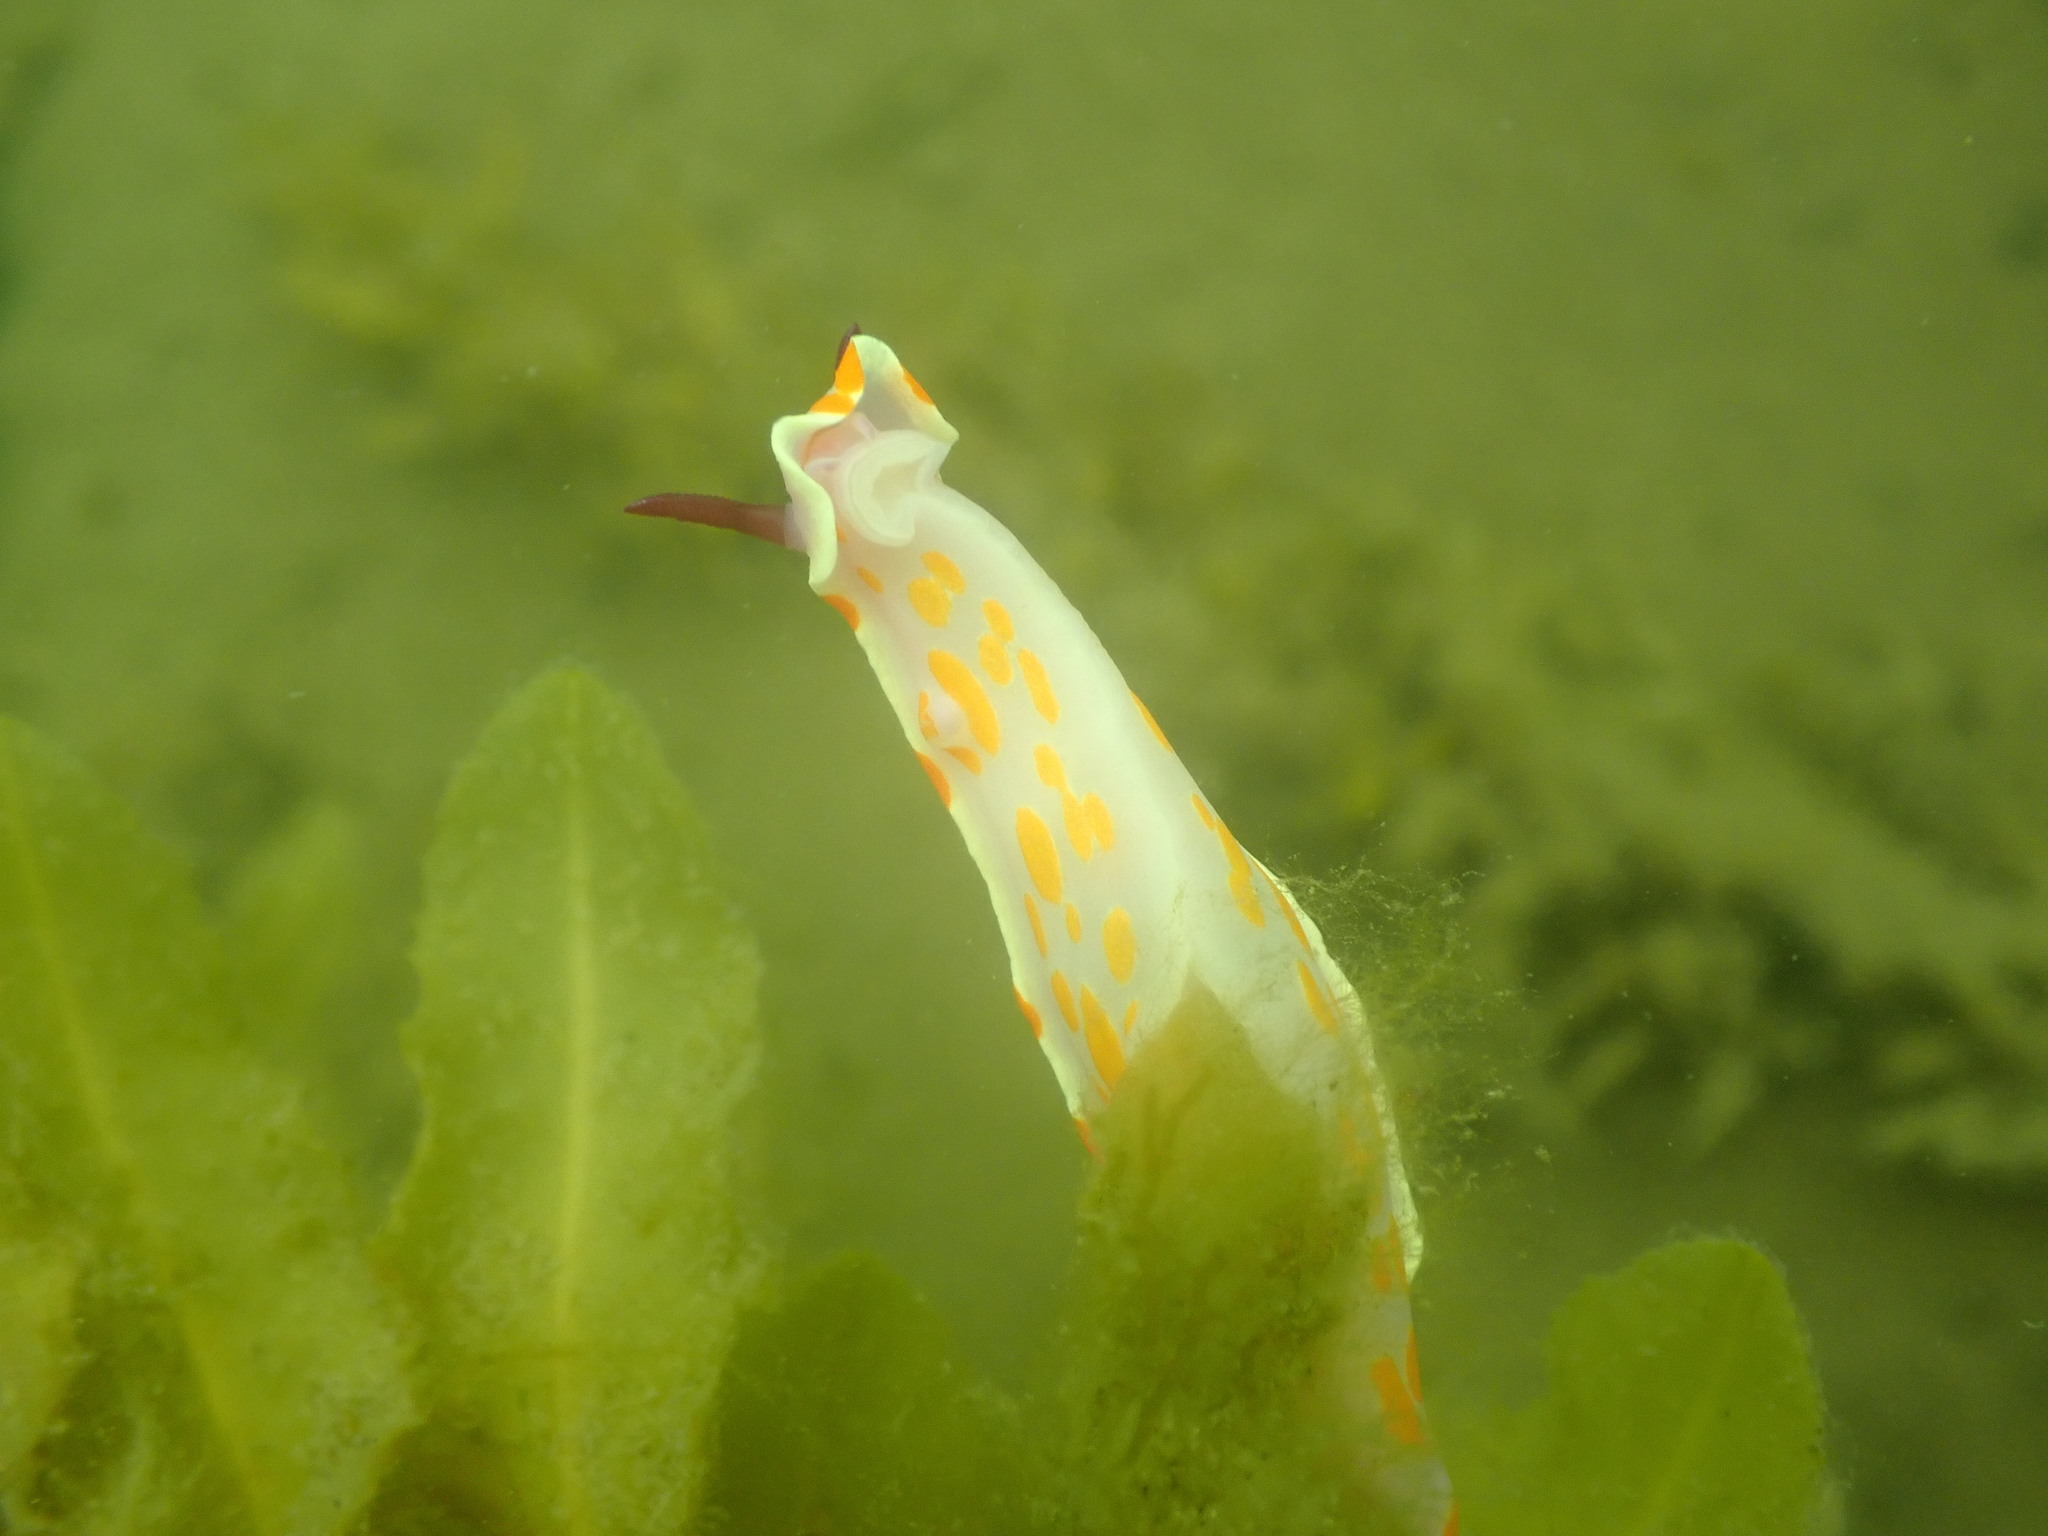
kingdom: Animalia
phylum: Mollusca
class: Gastropoda
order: Nudibranchia
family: Chromodorididae
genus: Ceratosoma
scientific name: Ceratosoma amoenum
